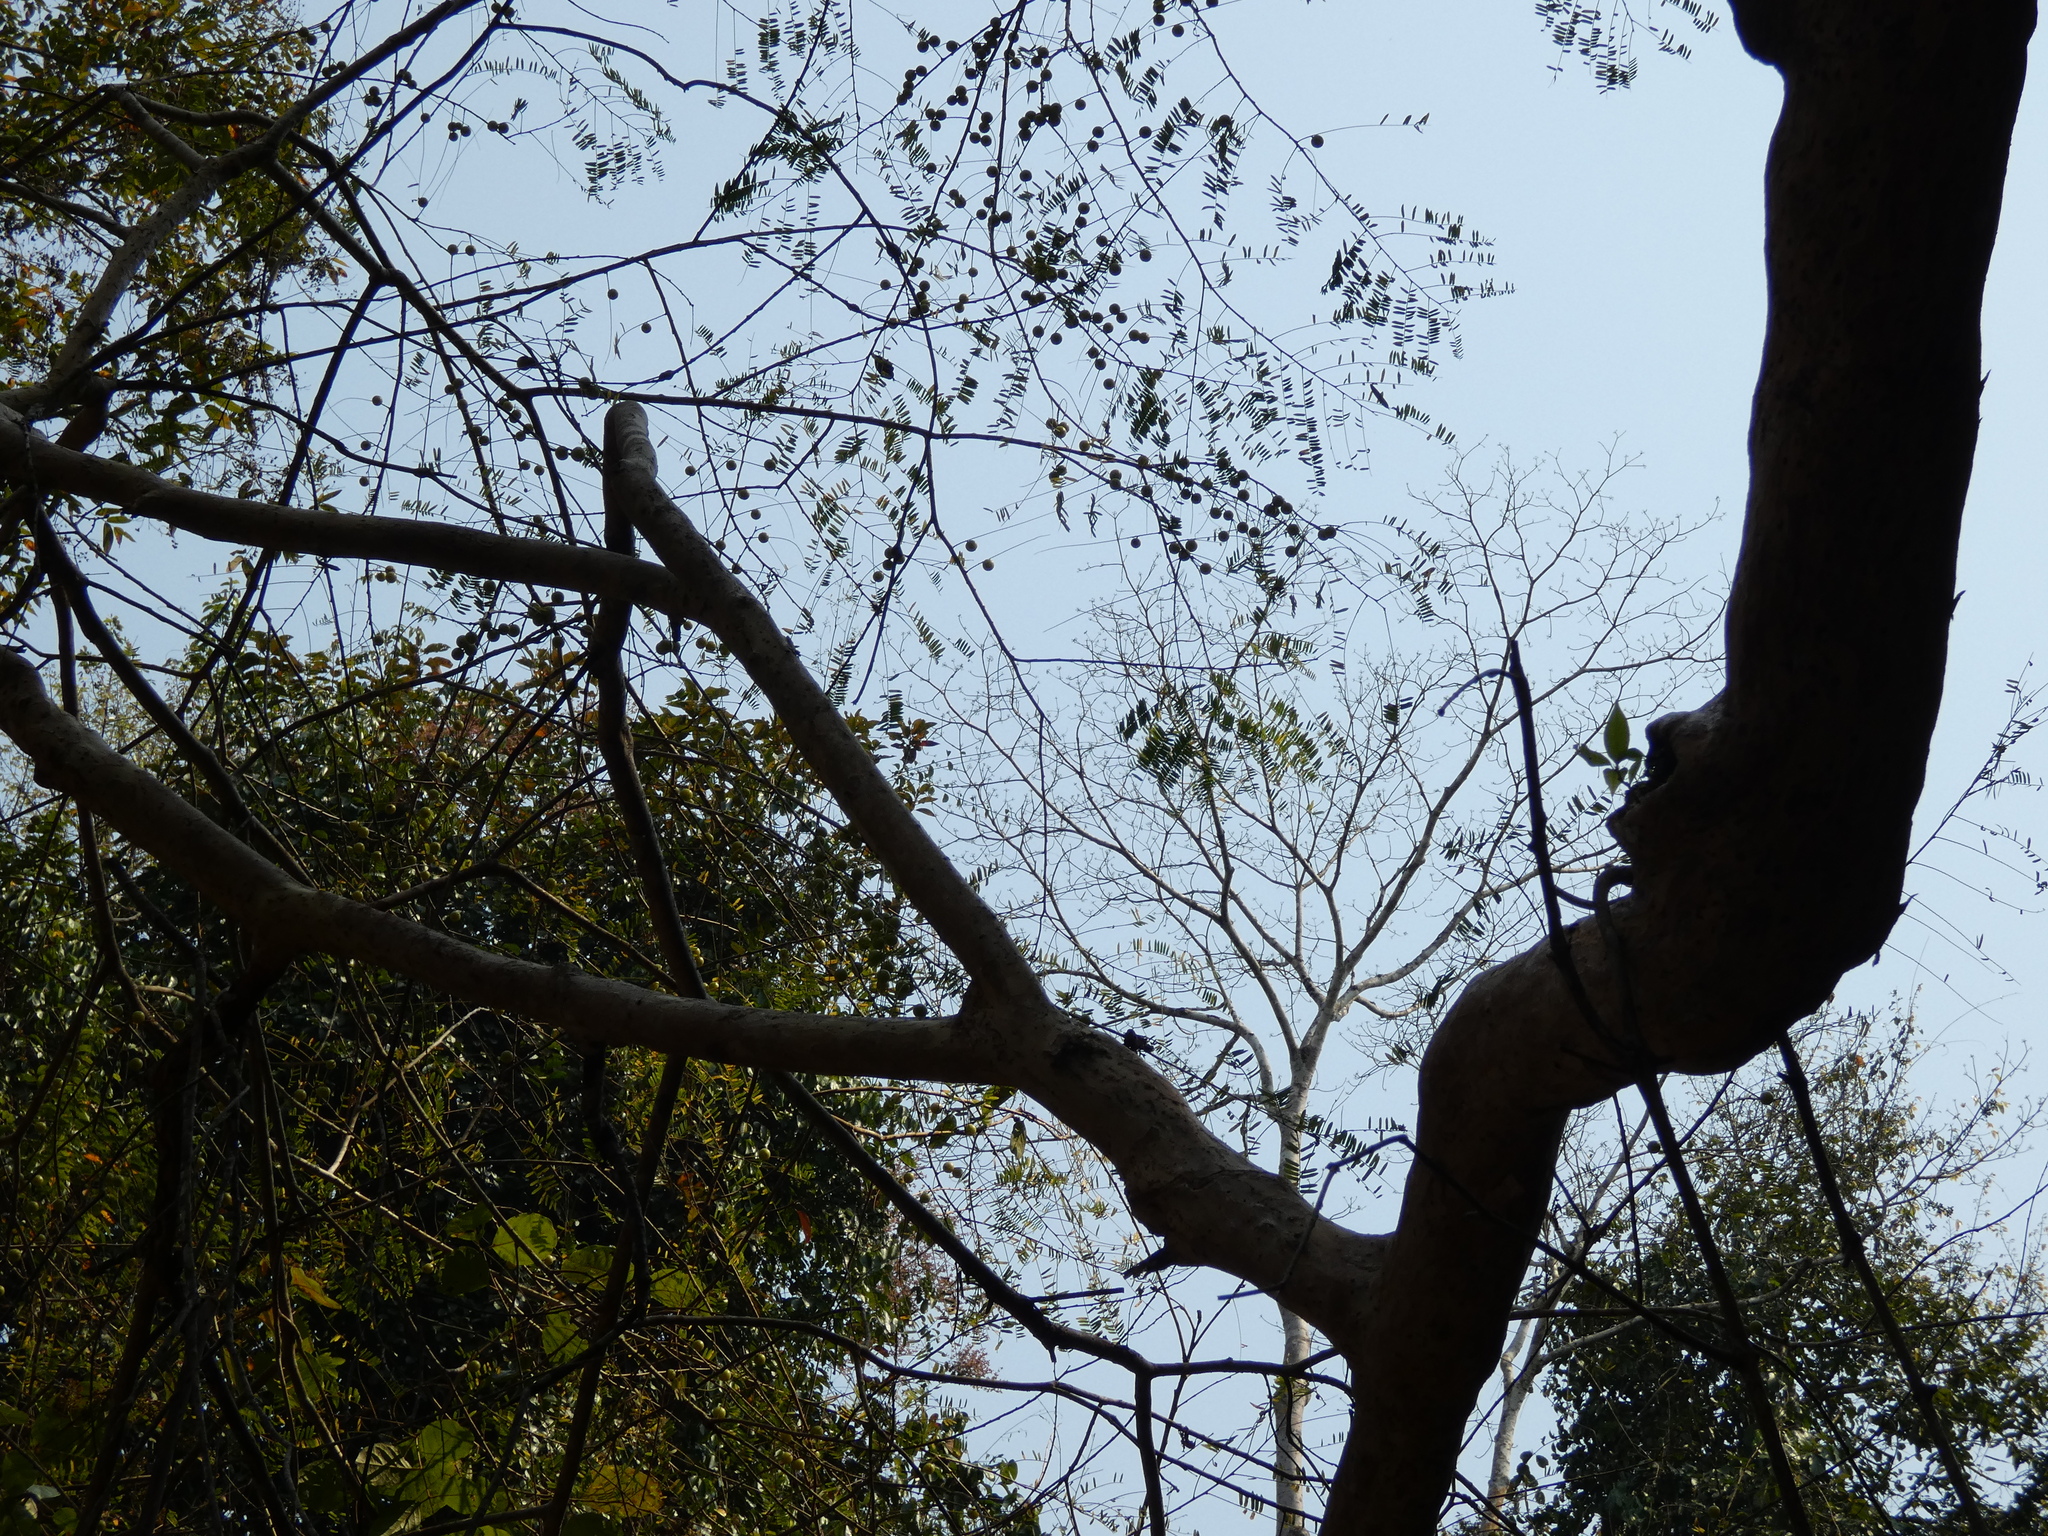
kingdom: Plantae
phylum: Tracheophyta
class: Magnoliopsida
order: Malpighiales
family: Phyllanthaceae
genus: Phyllanthus
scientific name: Phyllanthus emblica
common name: Indian gooseberry
